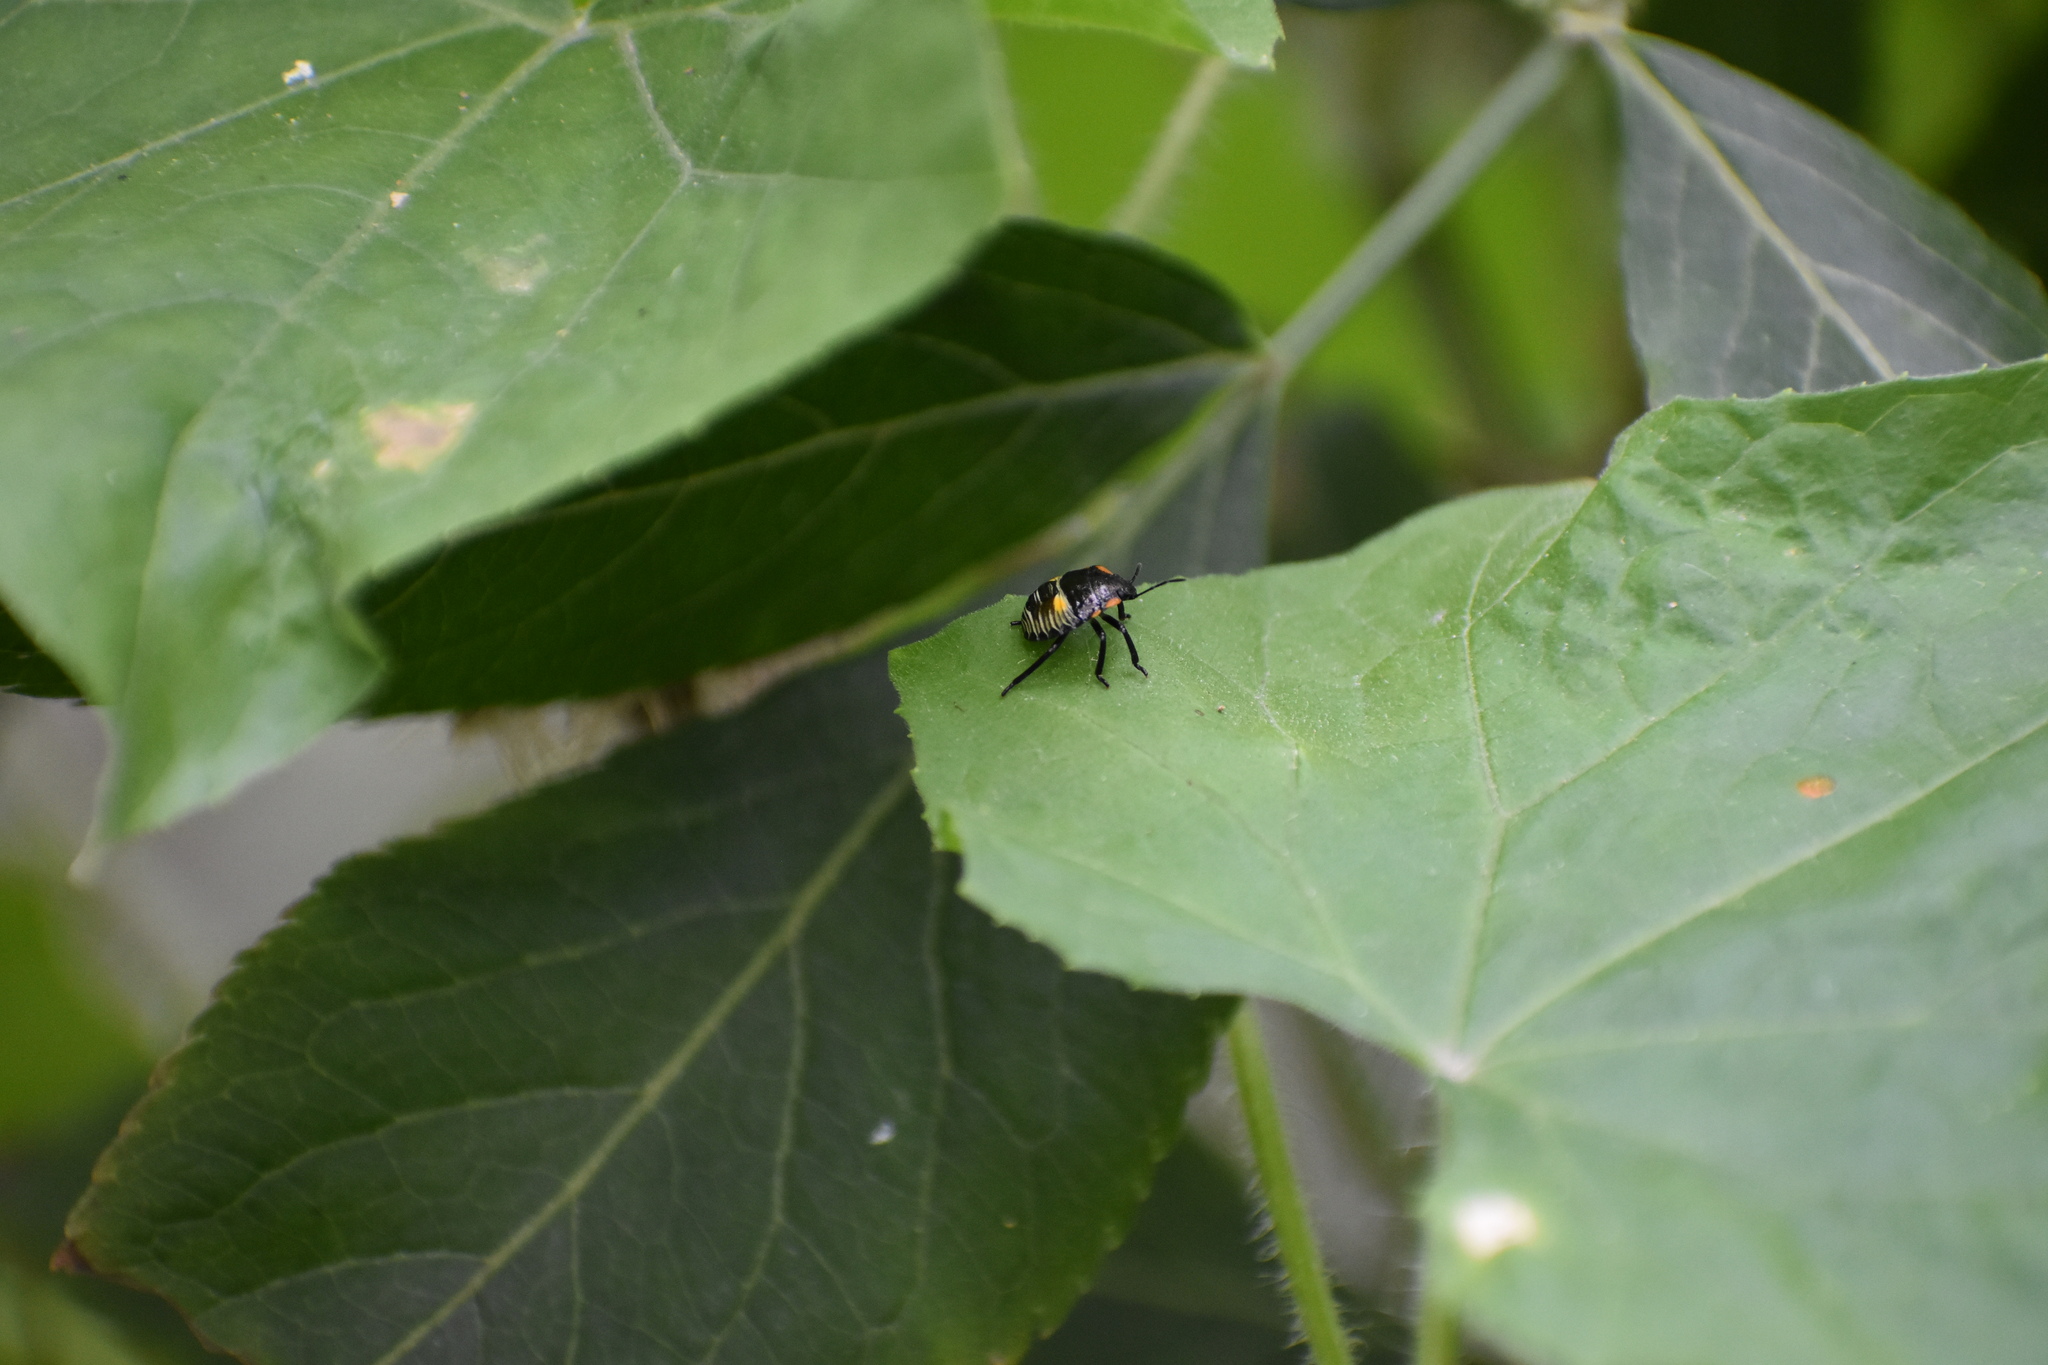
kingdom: Animalia
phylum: Arthropoda
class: Insecta
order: Hemiptera
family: Pentatomidae
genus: Chinavia
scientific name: Chinavia hilaris
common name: Green stink bug
